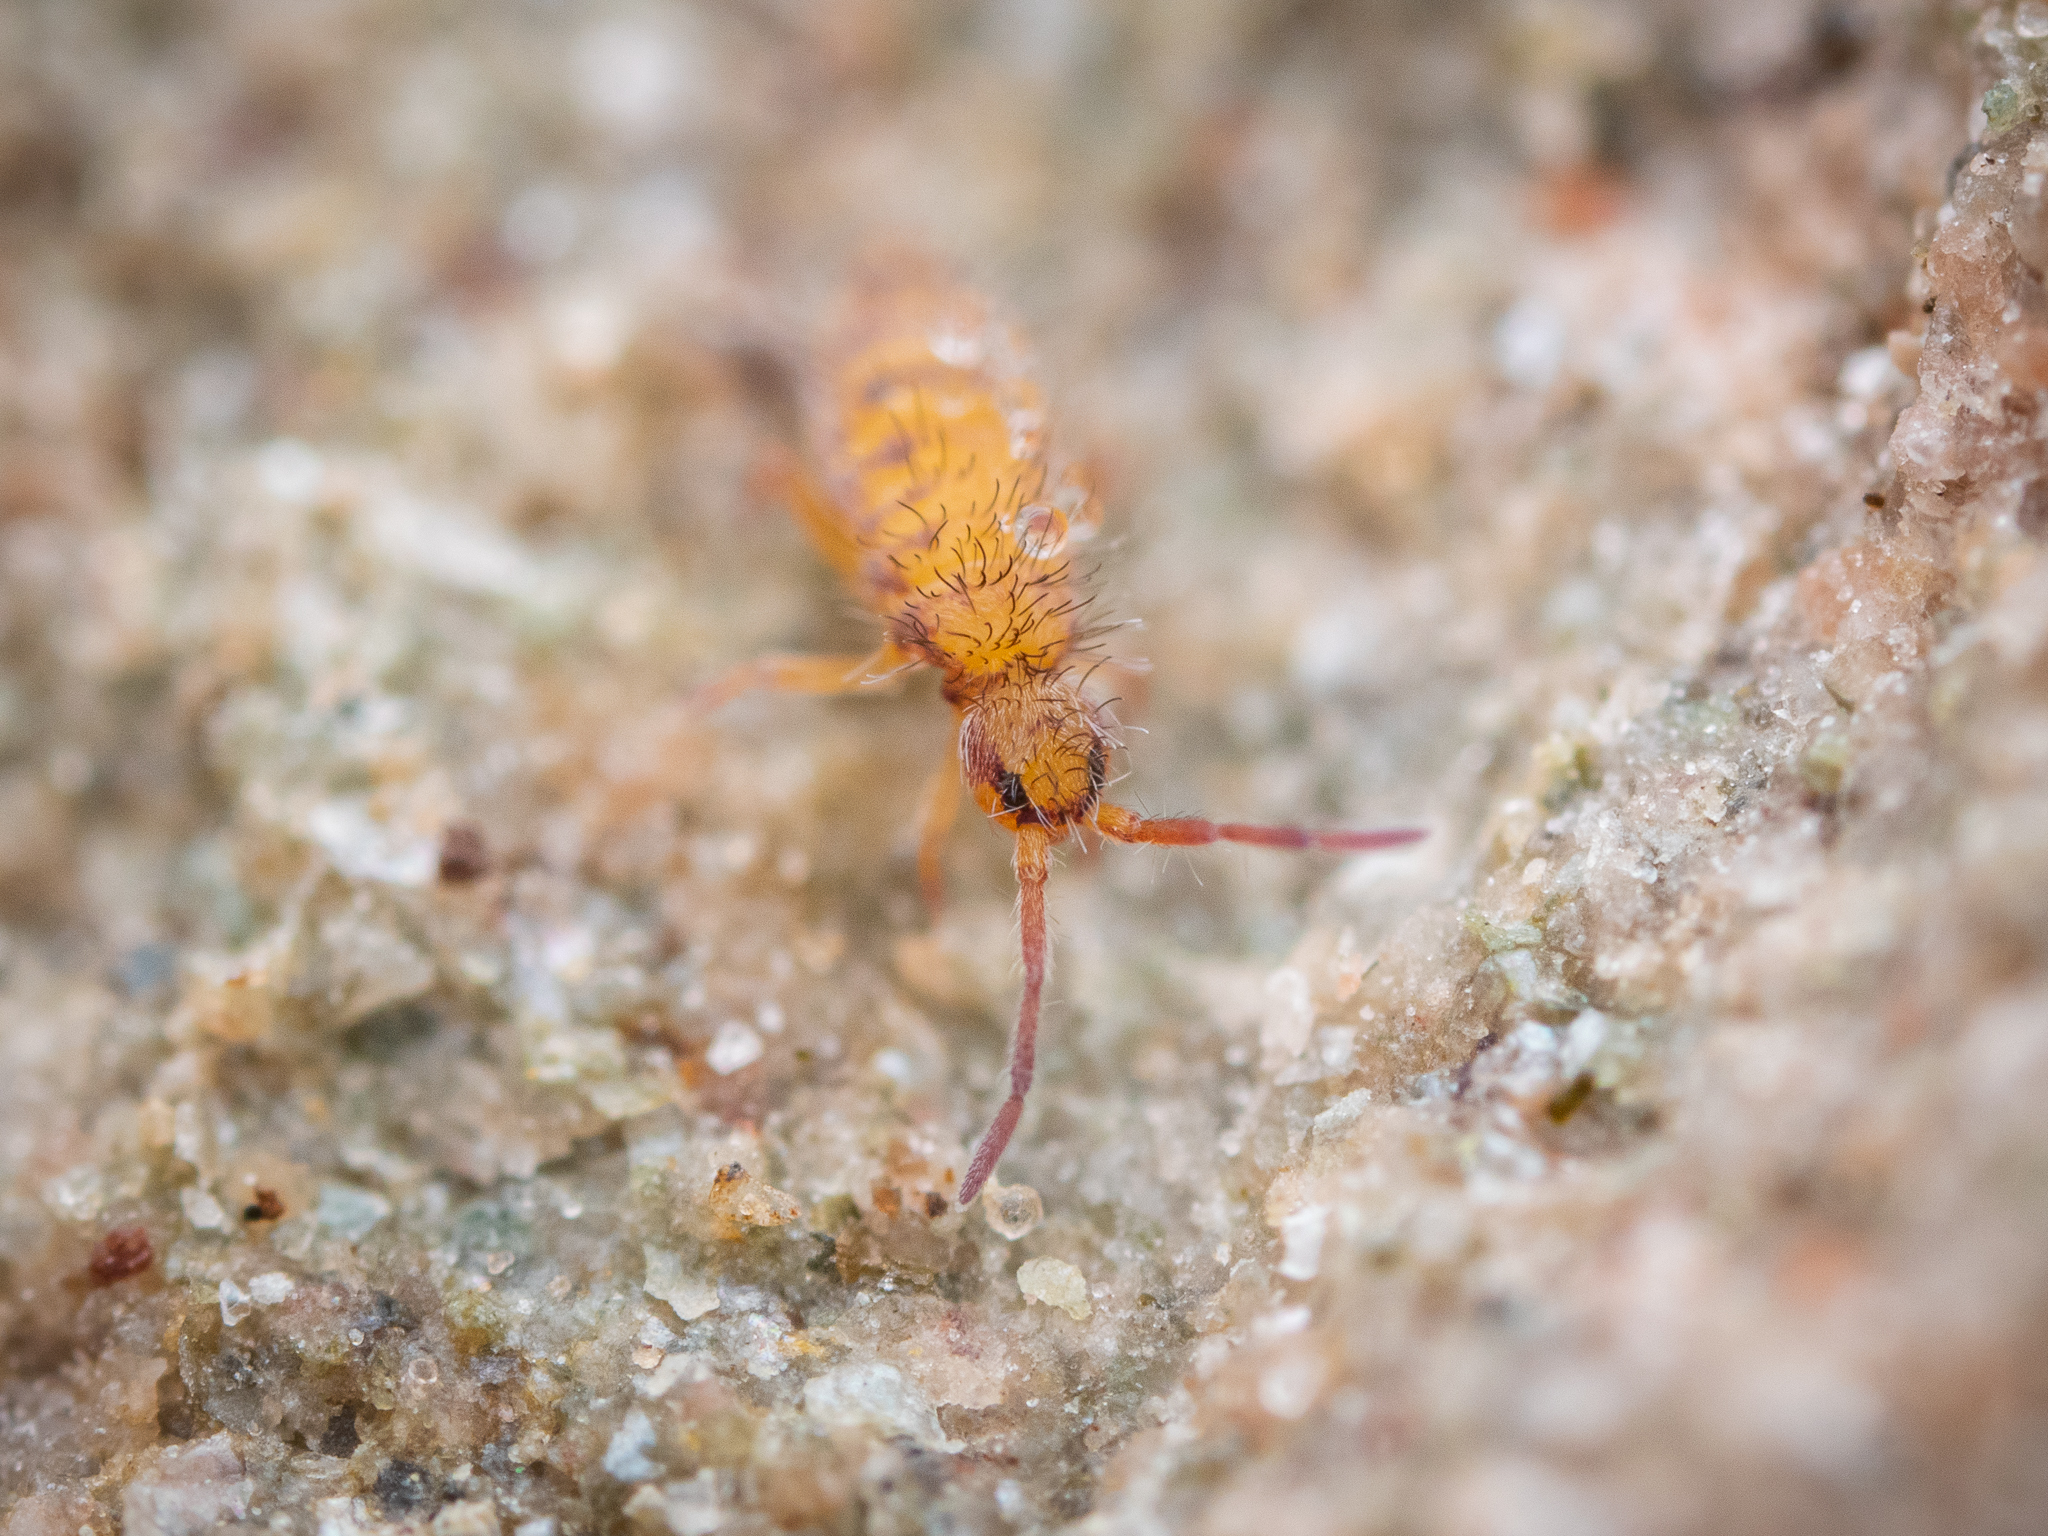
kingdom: Animalia
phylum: Arthropoda
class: Collembola
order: Entomobryomorpha
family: Entomobryidae
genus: Entomobrya
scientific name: Entomobrya multifasciata
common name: Springtail
